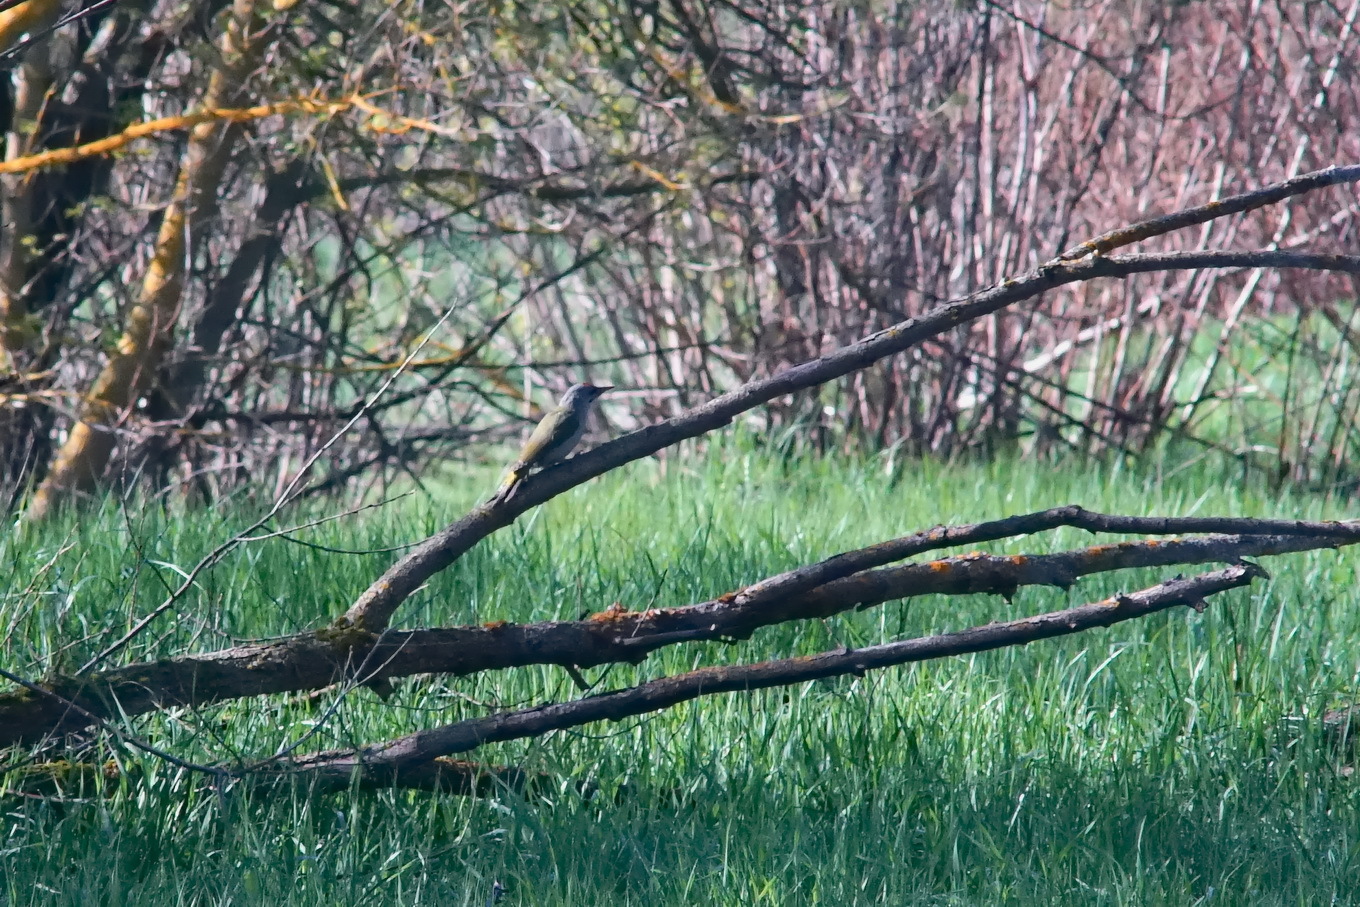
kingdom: Animalia
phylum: Chordata
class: Aves
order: Piciformes
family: Picidae
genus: Picus
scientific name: Picus canus
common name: Grey-headed woodpecker
